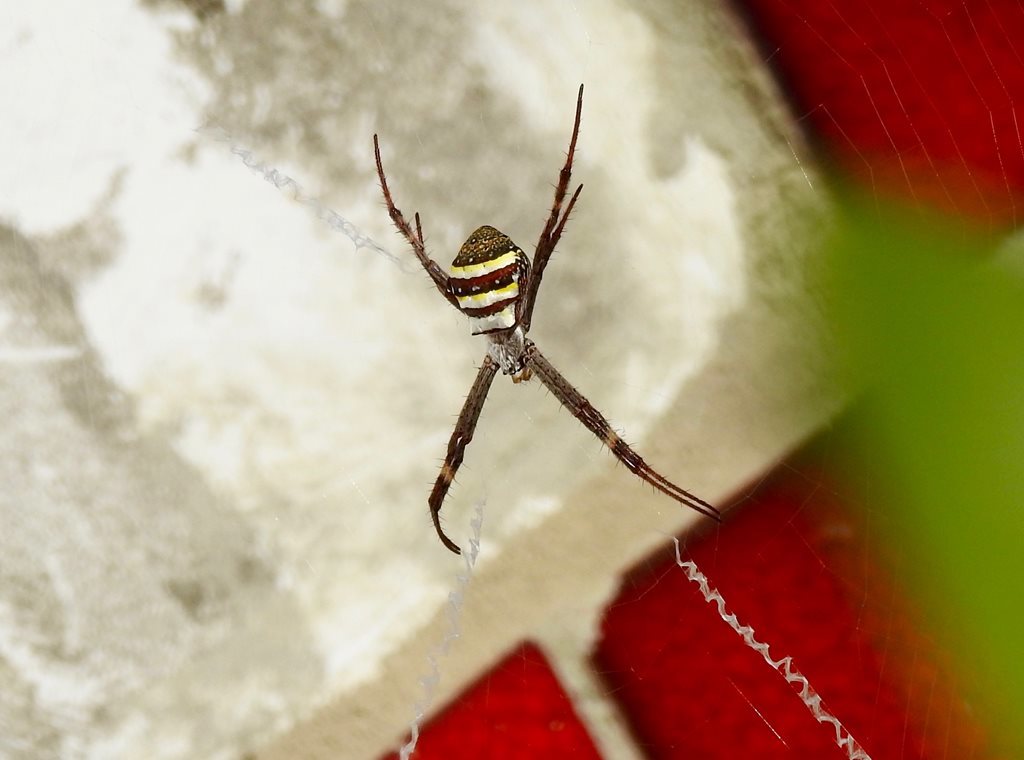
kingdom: Animalia
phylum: Arthropoda
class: Arachnida
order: Araneae
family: Araneidae
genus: Argiope
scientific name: Argiope keyserlingi
